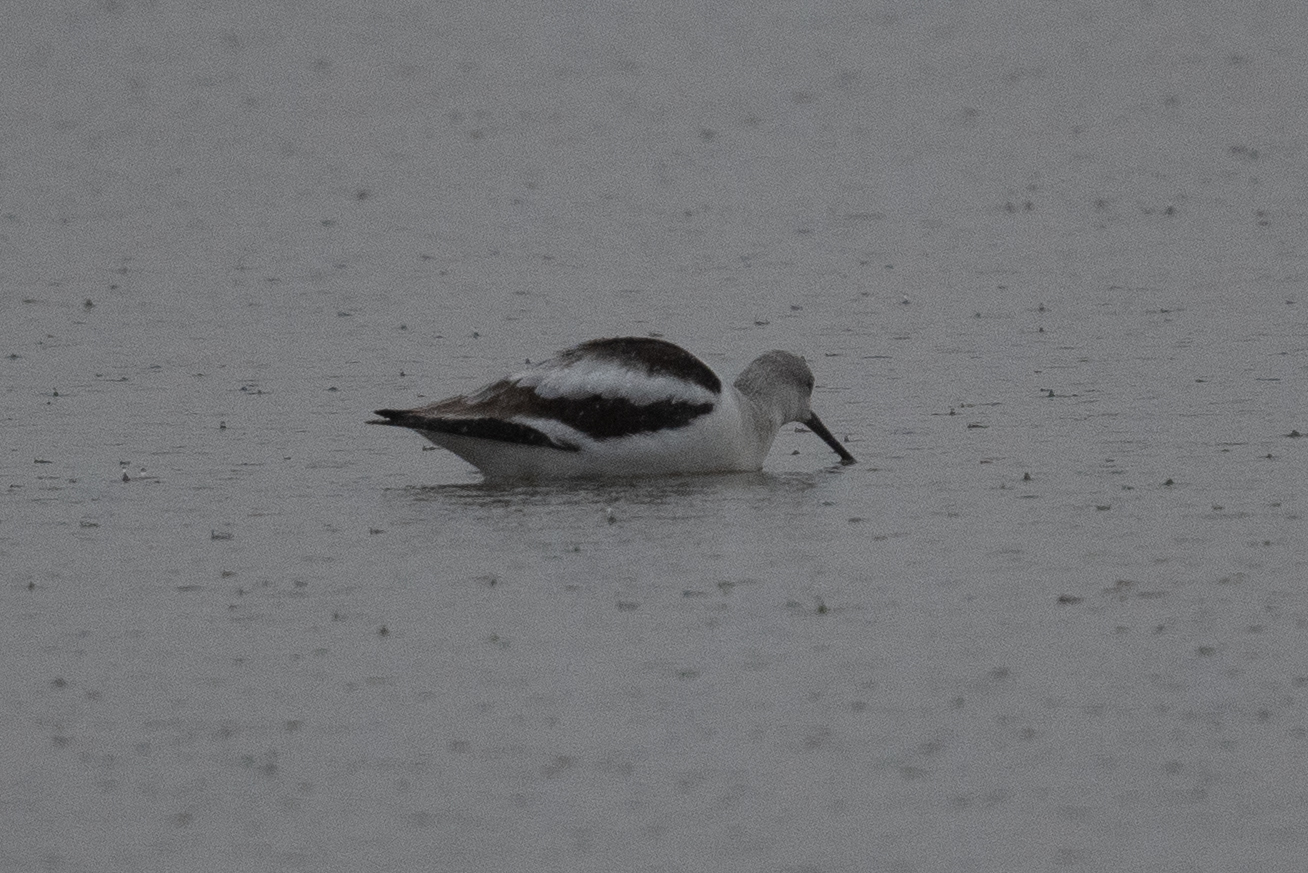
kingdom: Animalia
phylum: Chordata
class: Aves
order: Charadriiformes
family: Recurvirostridae
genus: Recurvirostra
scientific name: Recurvirostra americana
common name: American avocet
